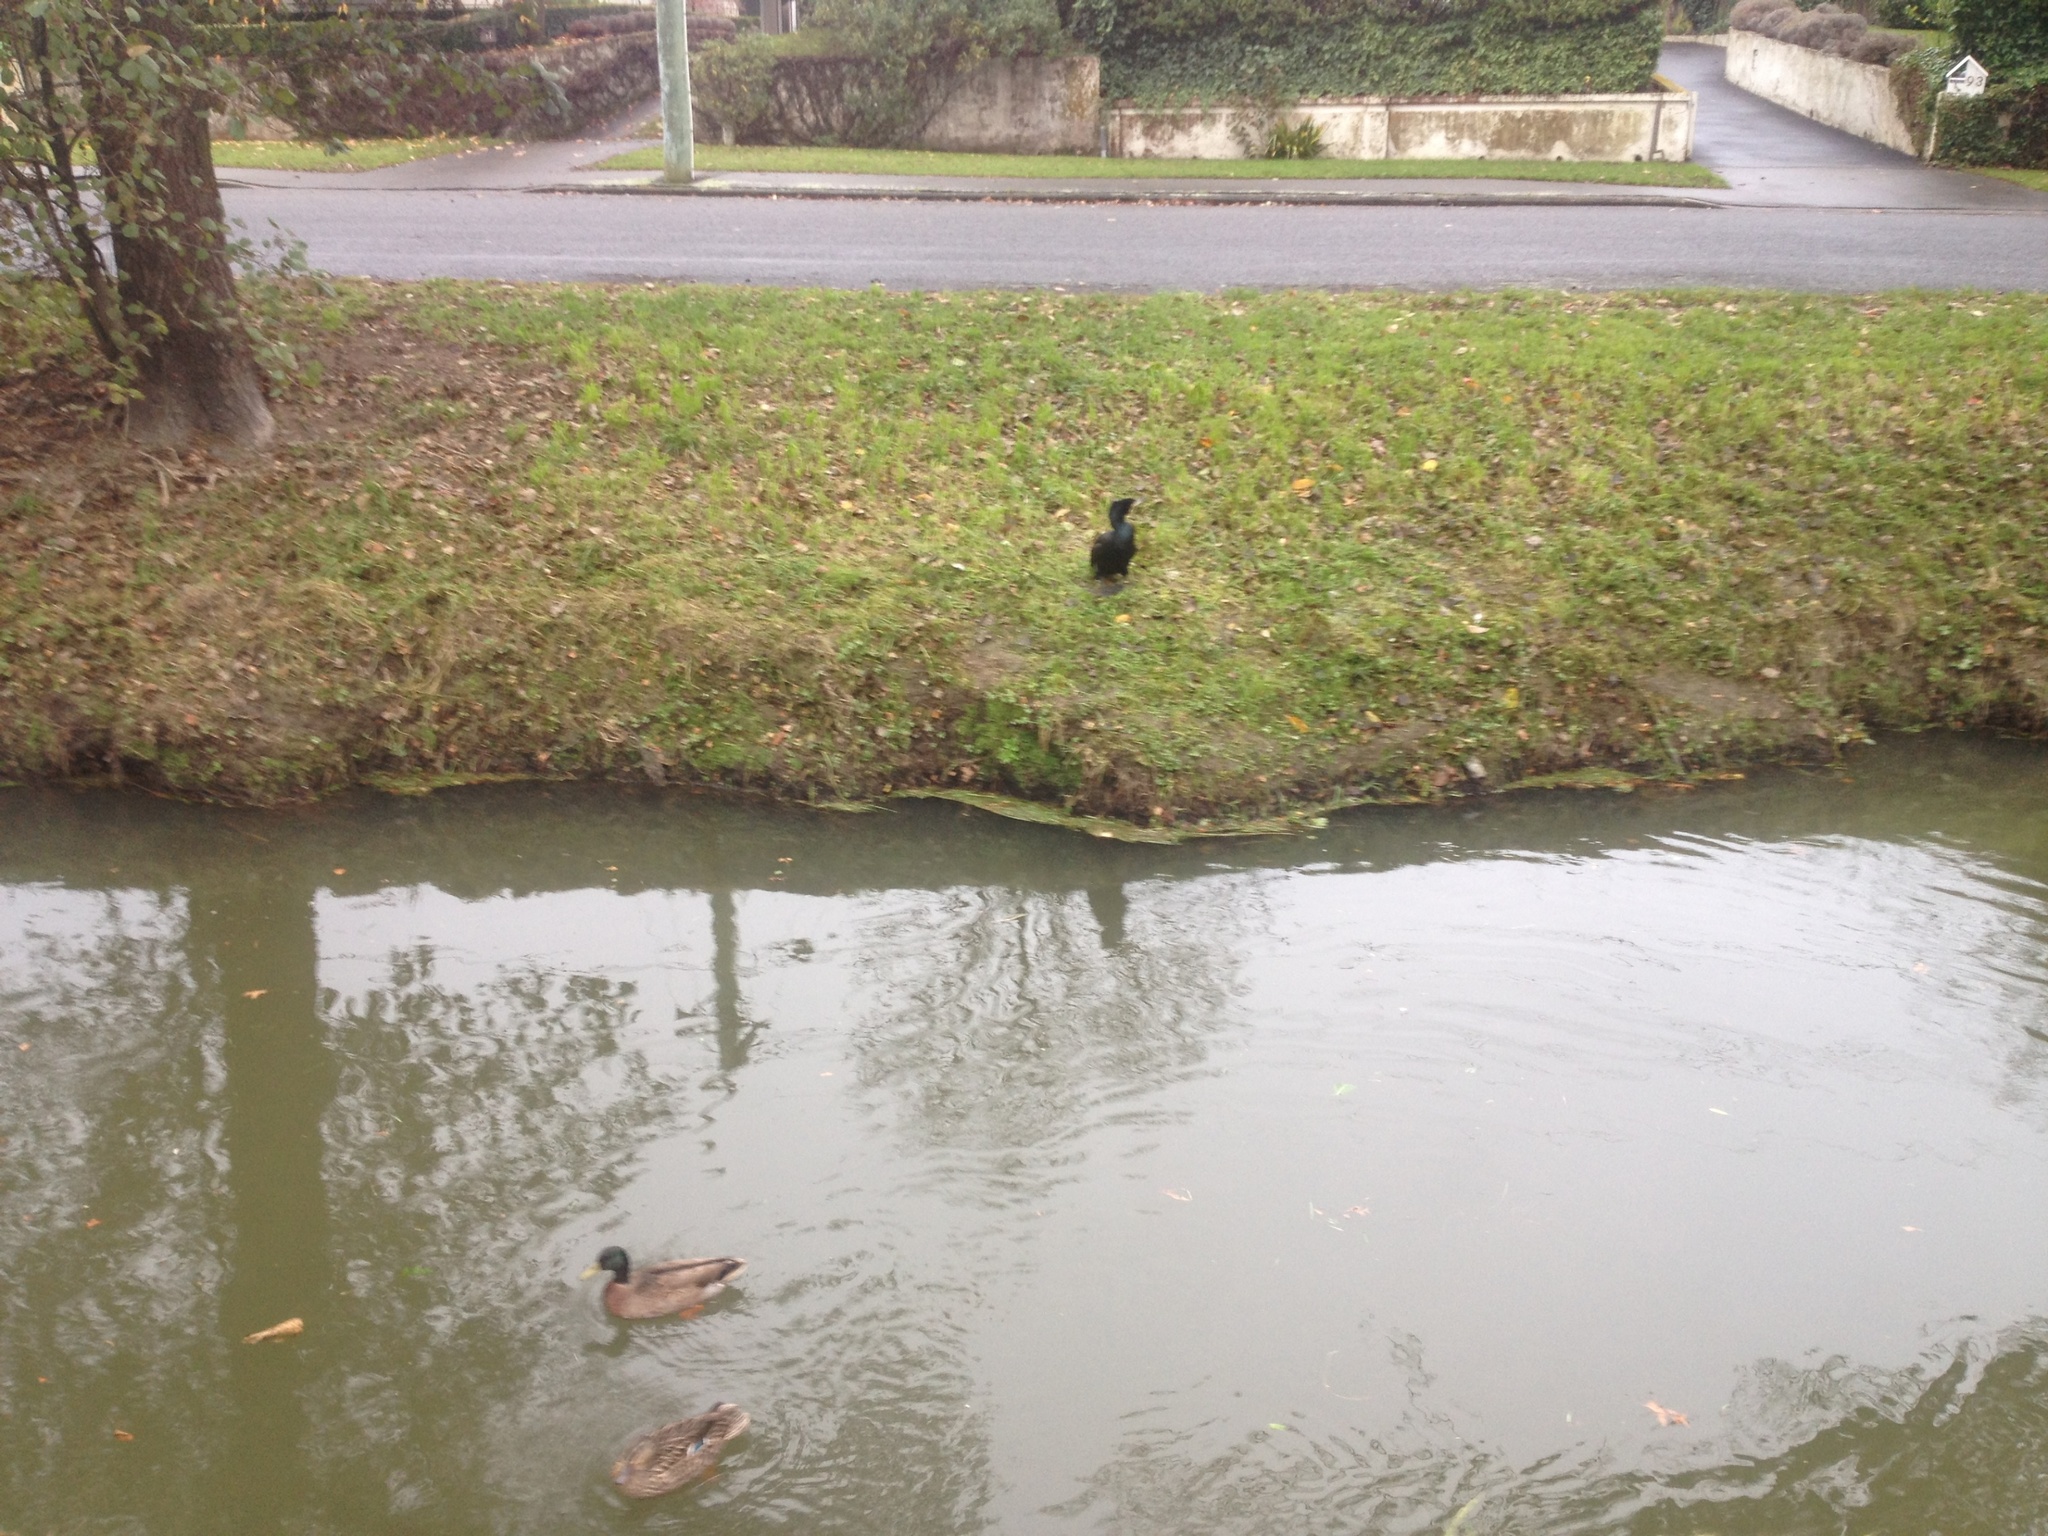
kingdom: Animalia
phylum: Chordata
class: Aves
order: Suliformes
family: Phalacrocoracidae
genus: Phalacrocorax
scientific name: Phalacrocorax carbo
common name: Great cormorant
